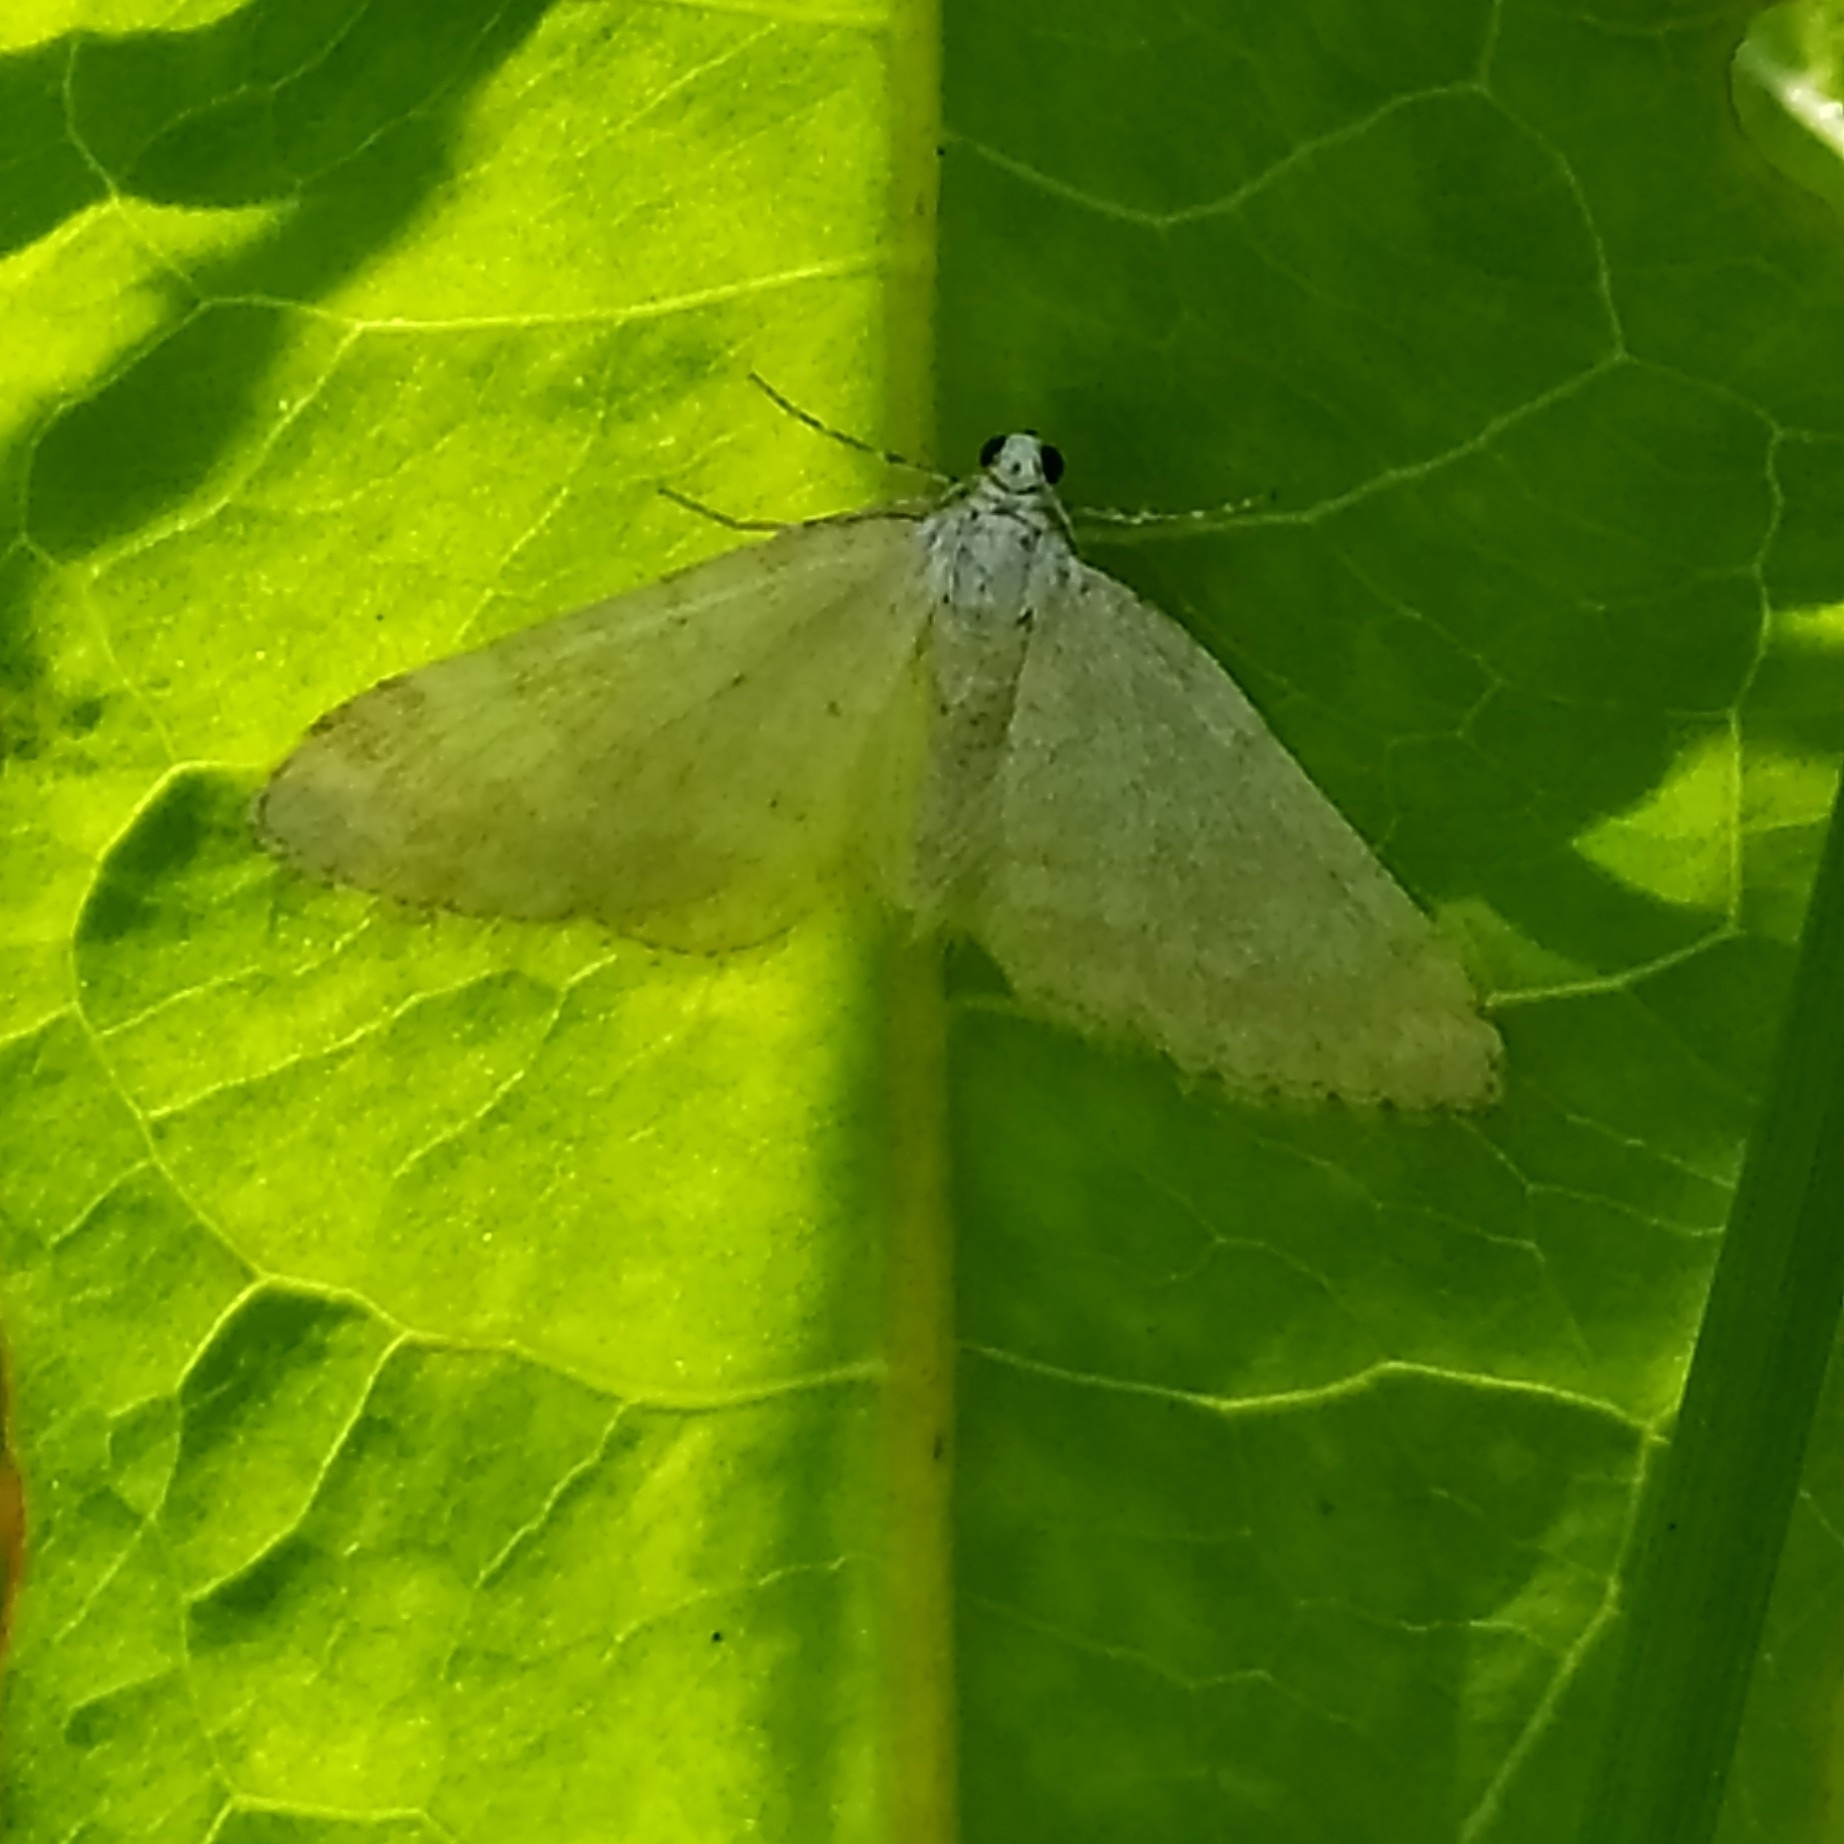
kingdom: Animalia
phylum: Arthropoda
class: Insecta
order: Lepidoptera
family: Geometridae
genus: Perizoma
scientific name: Perizoma albulata
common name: Grass rivulet
